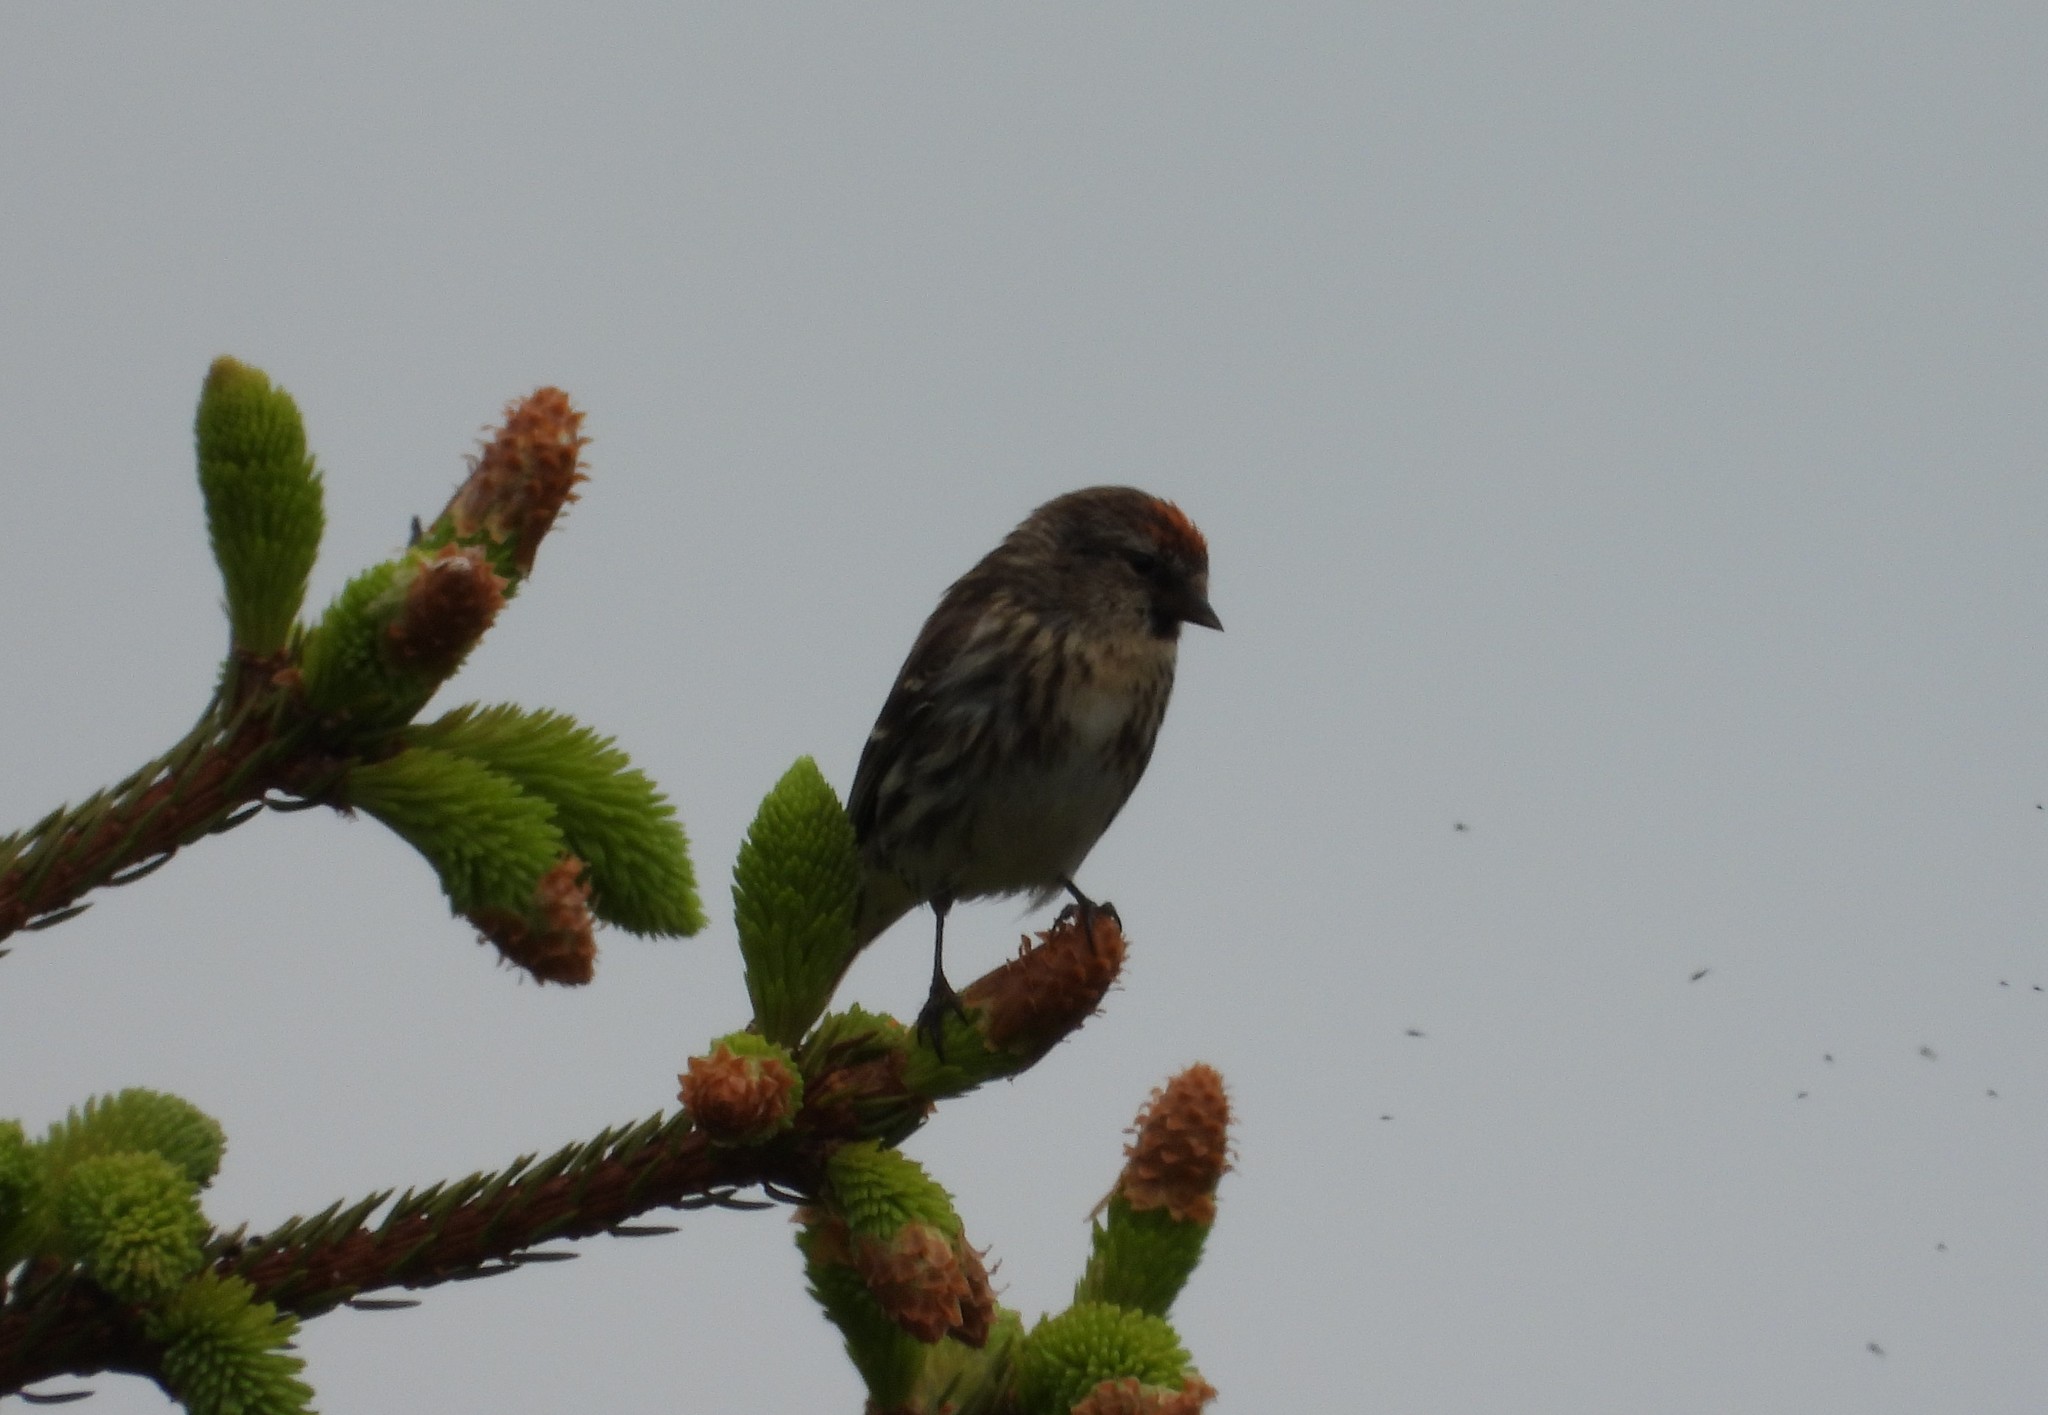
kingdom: Animalia
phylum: Chordata
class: Aves
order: Passeriformes
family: Fringillidae
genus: Acanthis
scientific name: Acanthis flammea
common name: Common redpoll
